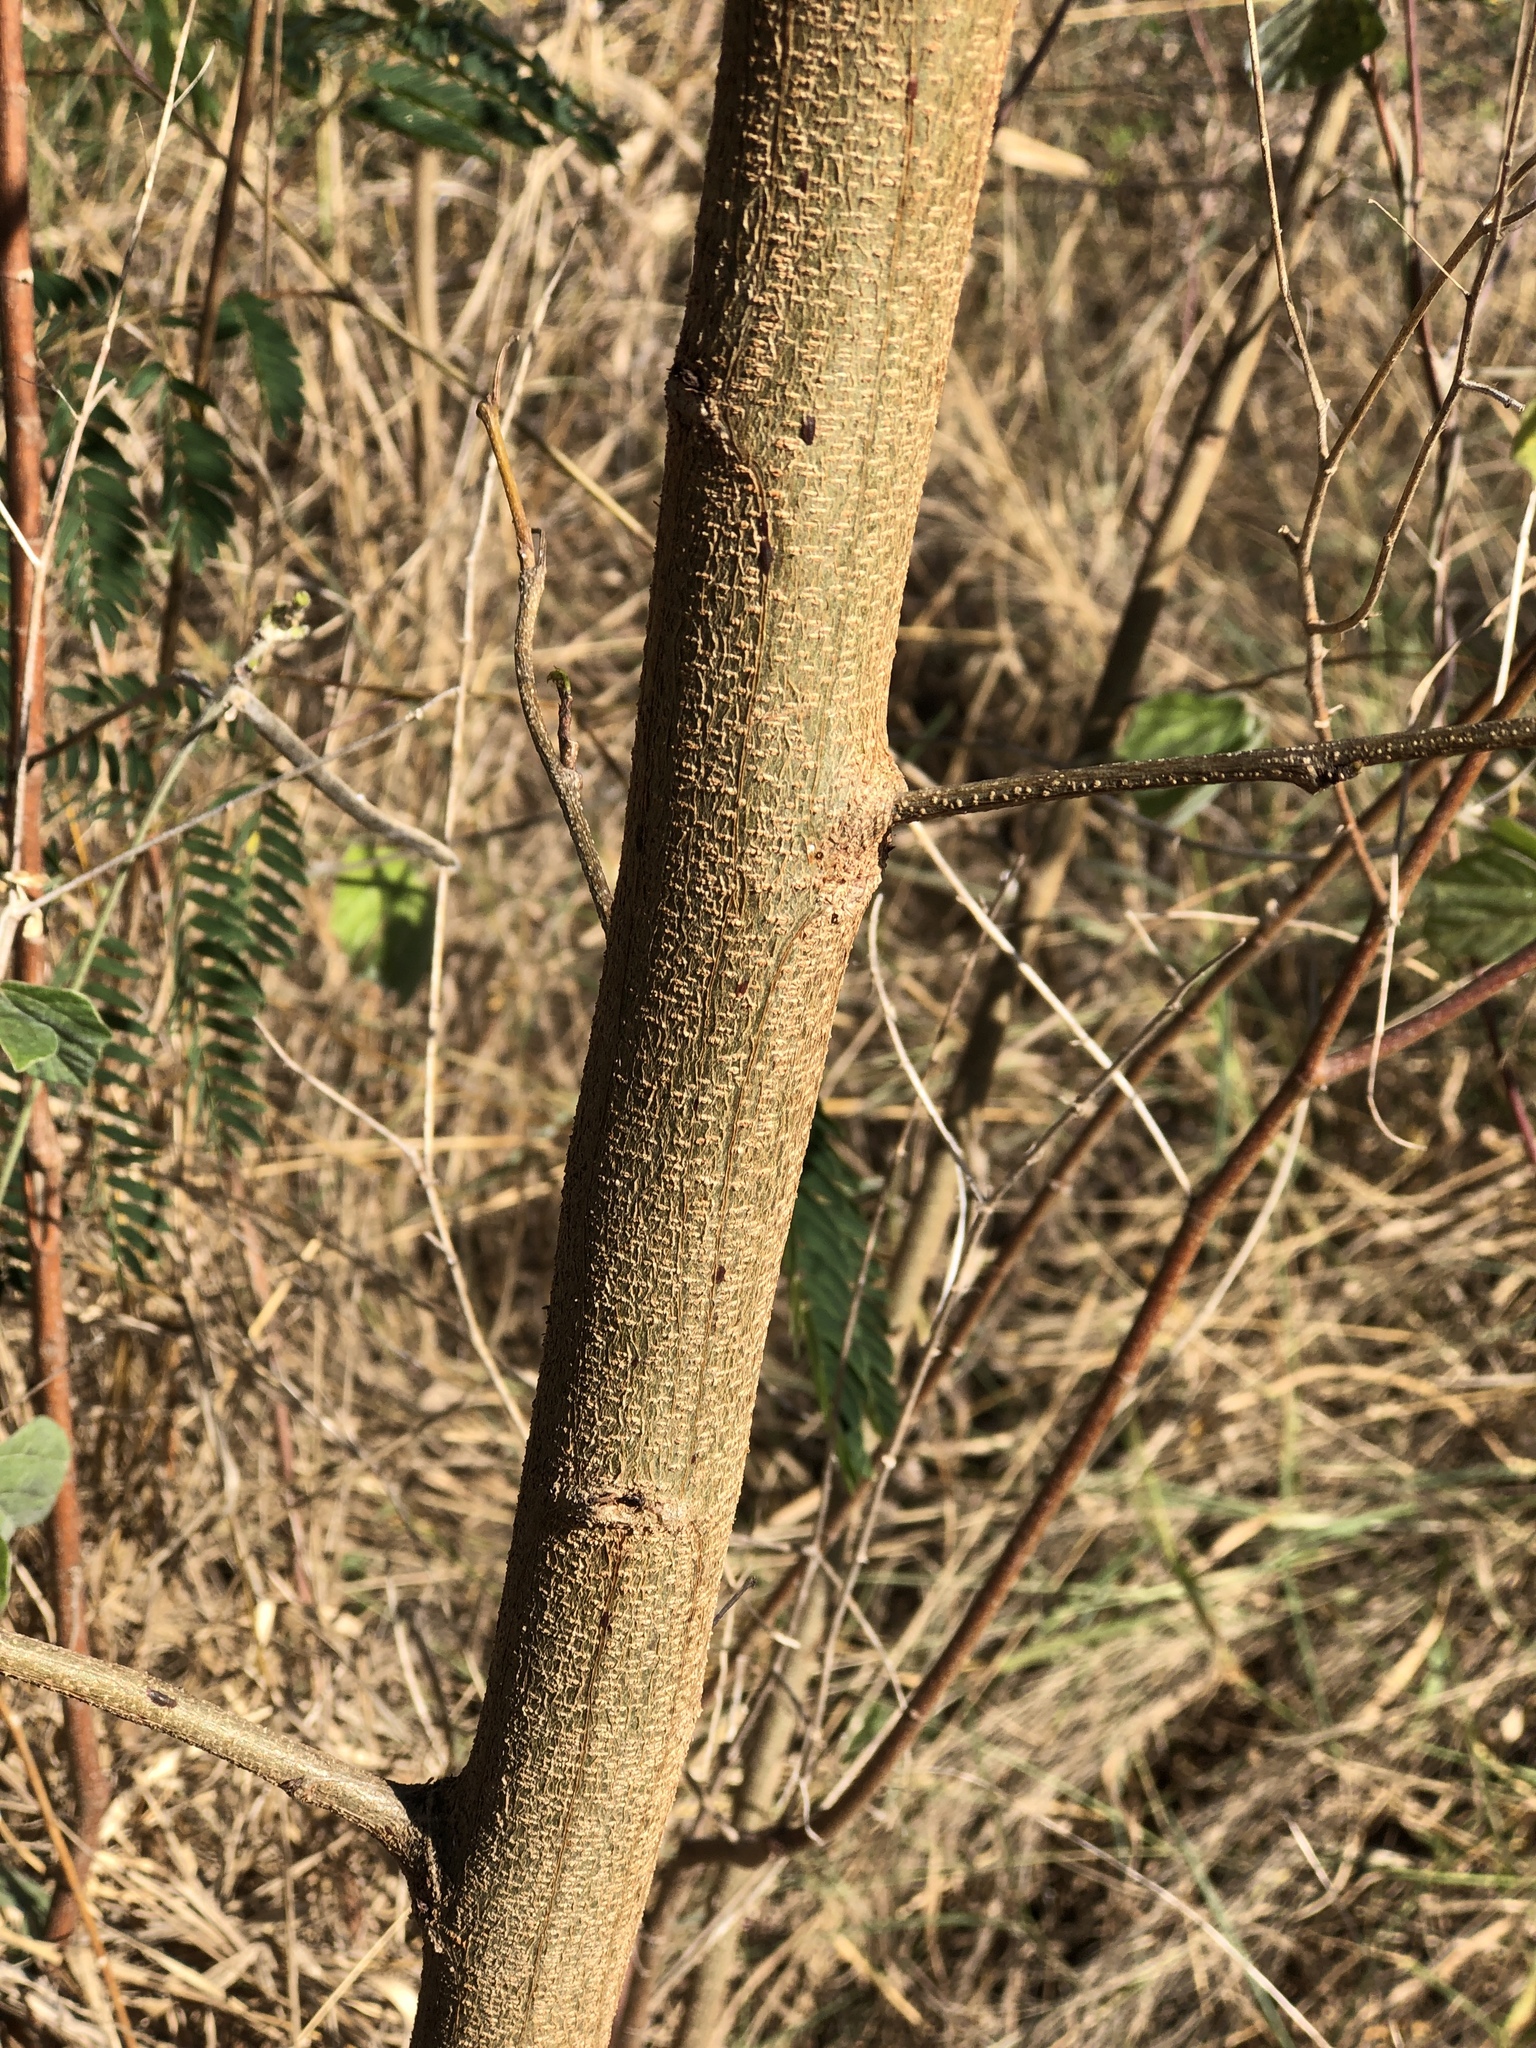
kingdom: Plantae
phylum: Tracheophyta
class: Magnoliopsida
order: Fabales
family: Fabaceae
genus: Leucaena
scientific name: Leucaena leucocephala
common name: White leadtree
